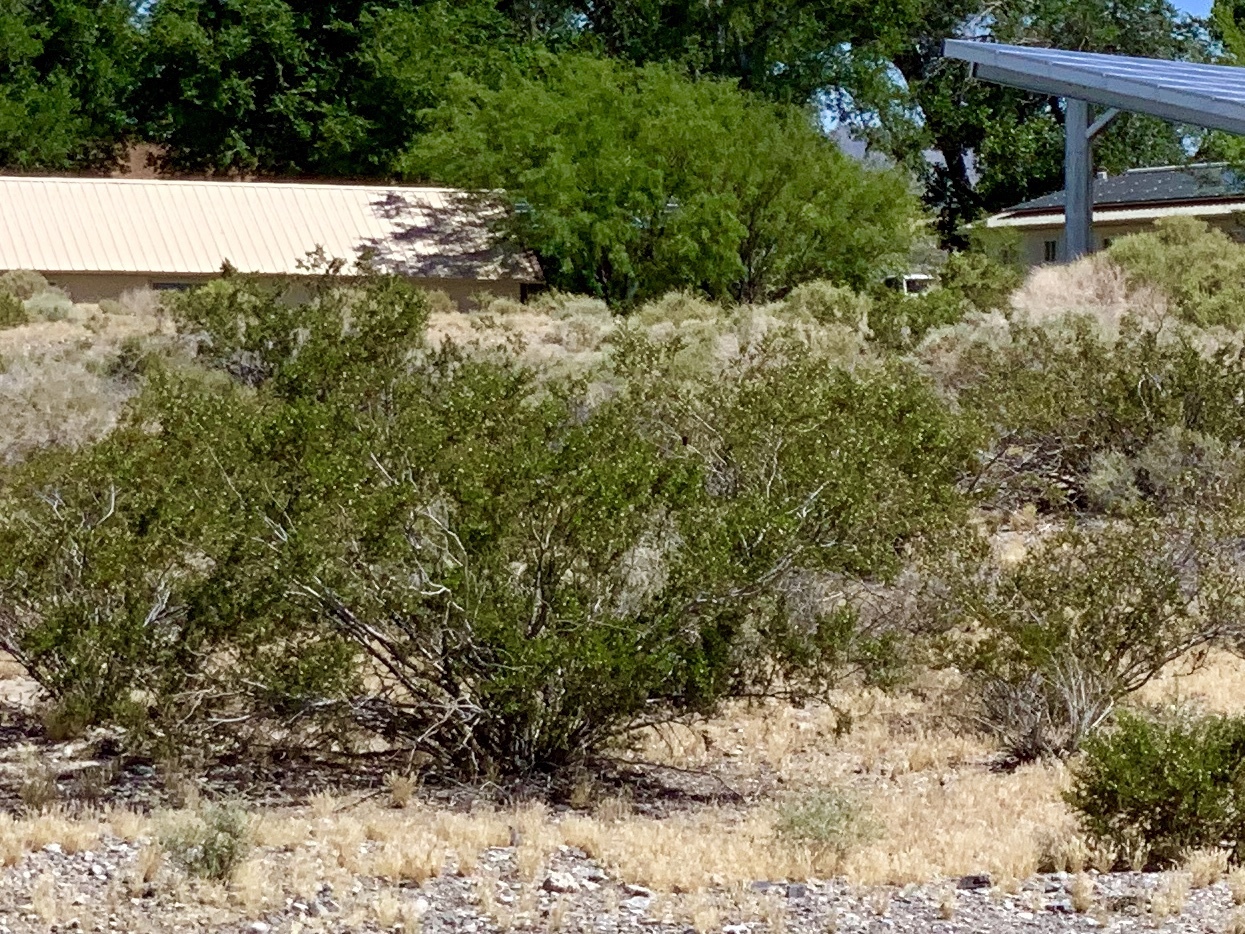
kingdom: Plantae
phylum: Tracheophyta
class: Magnoliopsida
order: Zygophyllales
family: Zygophyllaceae
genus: Larrea
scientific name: Larrea tridentata
